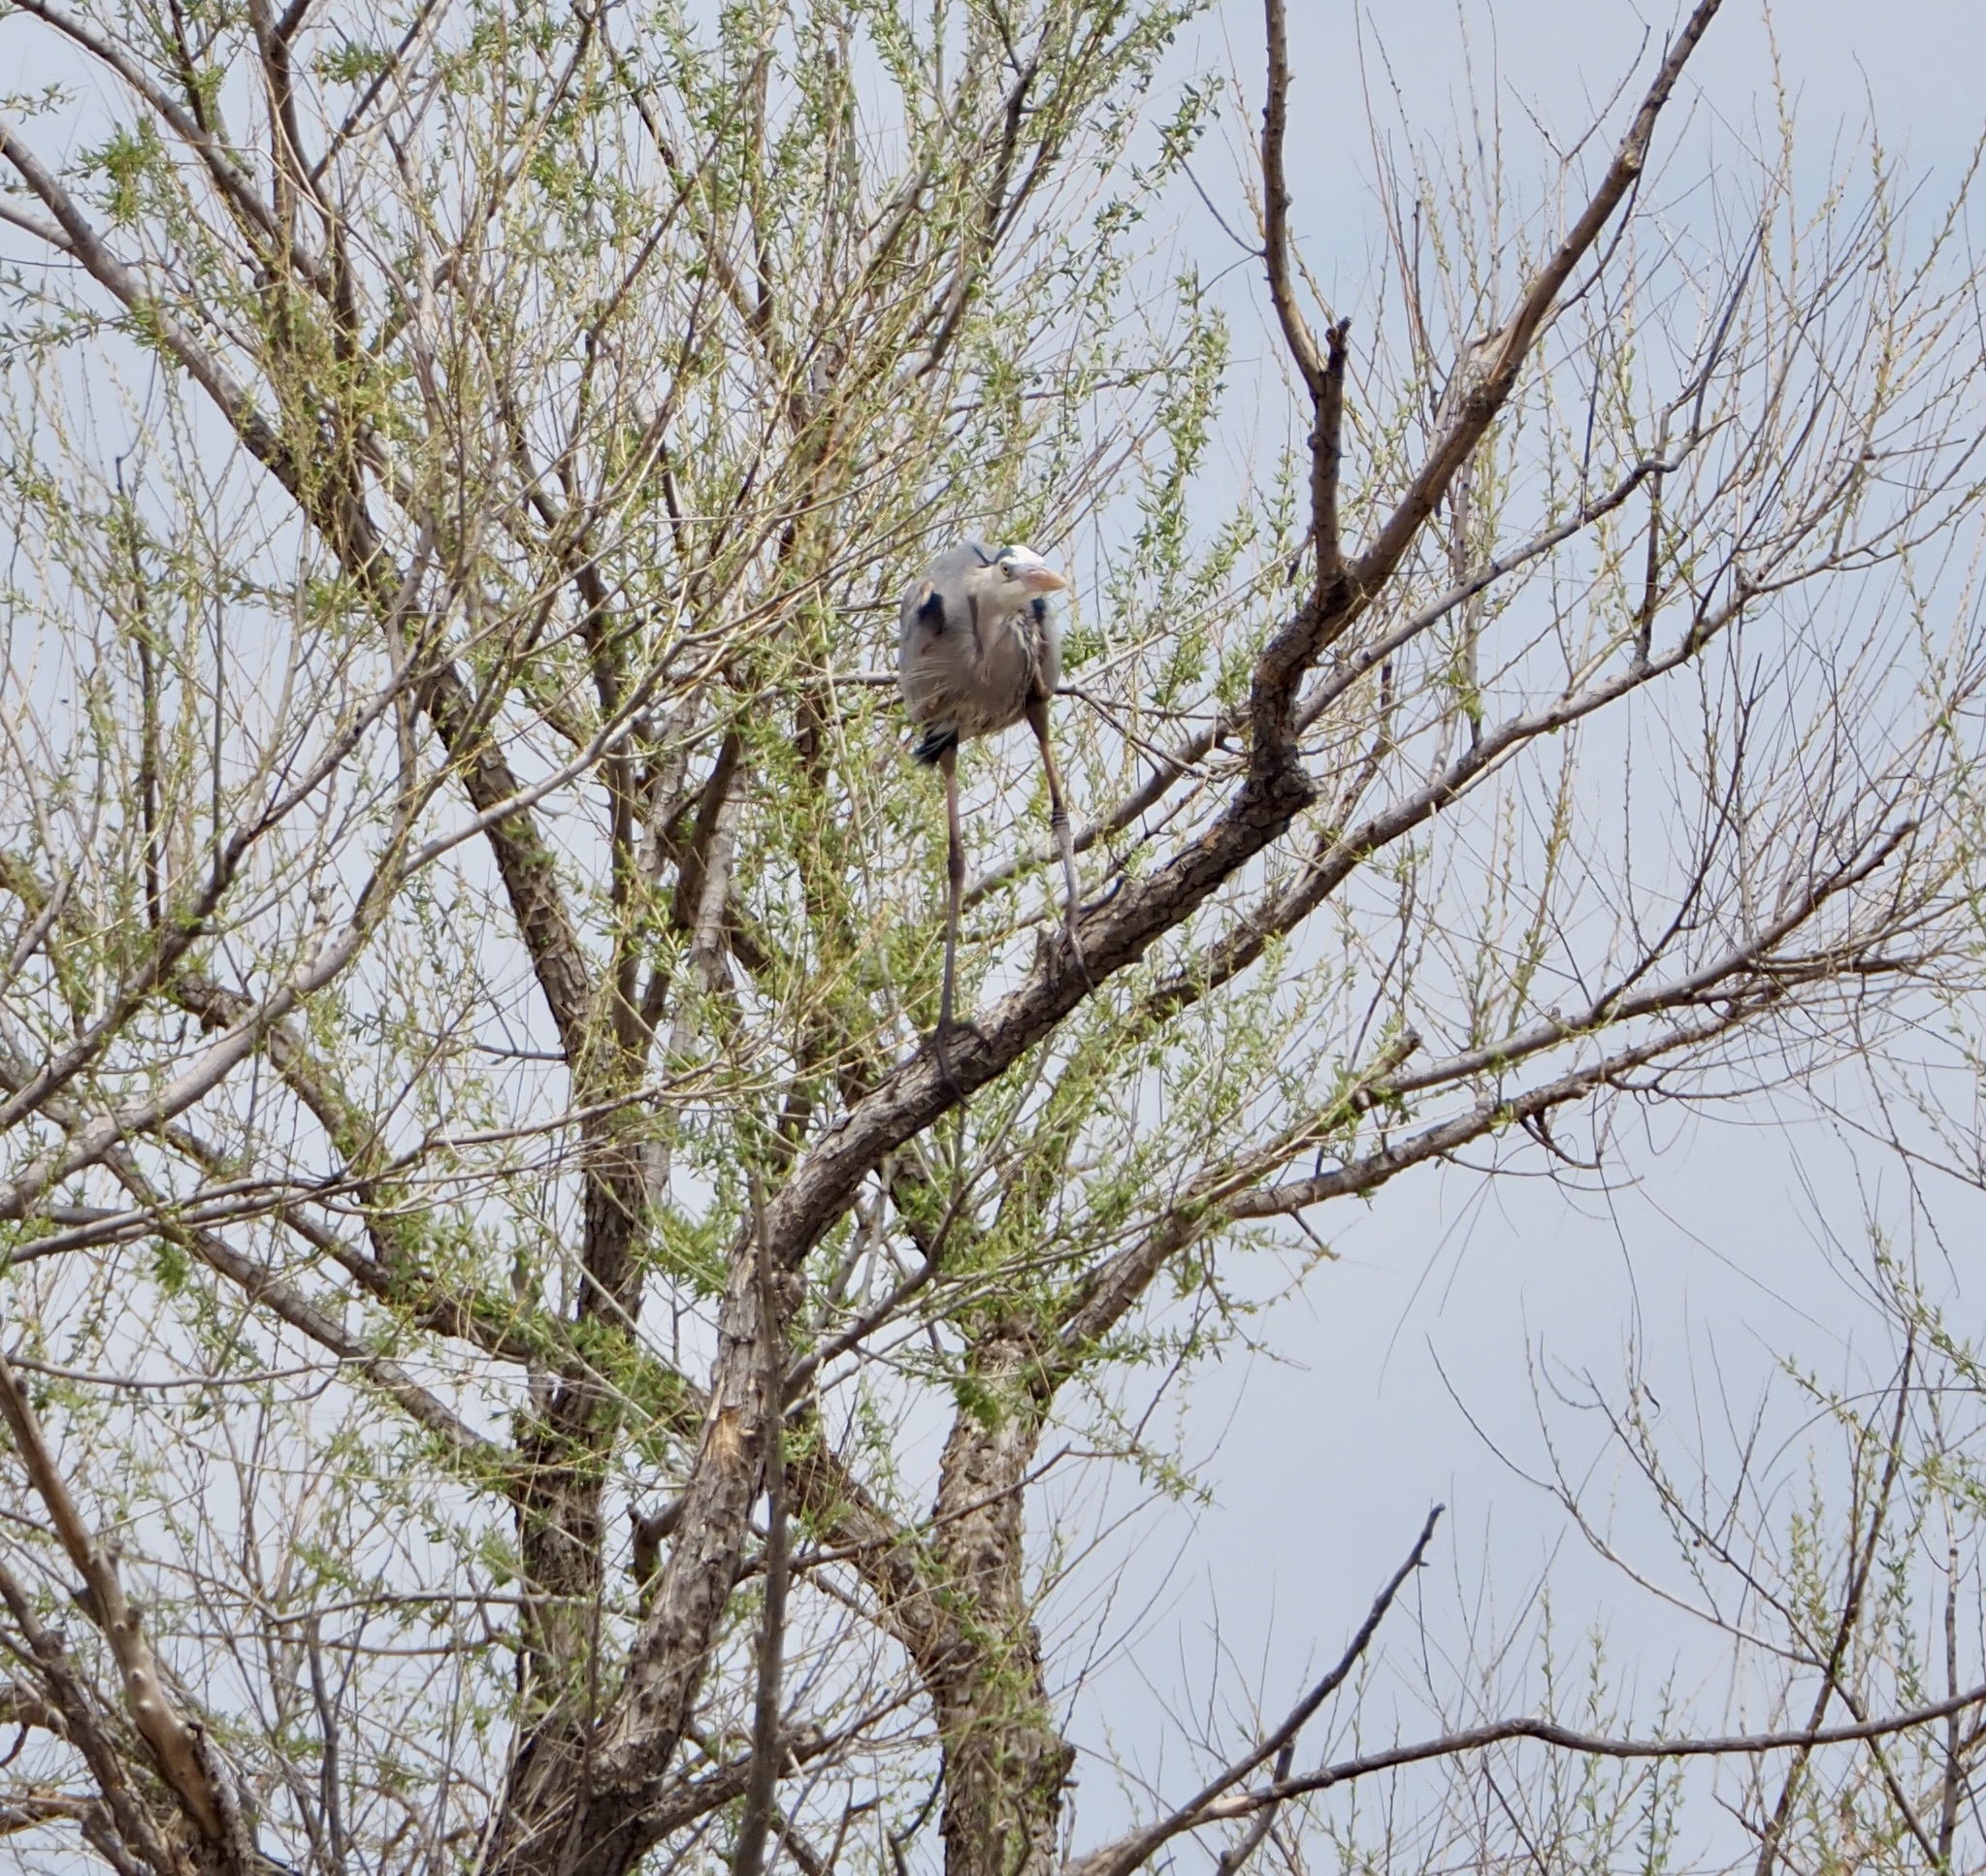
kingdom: Animalia
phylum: Chordata
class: Aves
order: Pelecaniformes
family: Ardeidae
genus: Ardea
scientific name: Ardea herodias
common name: Great blue heron
